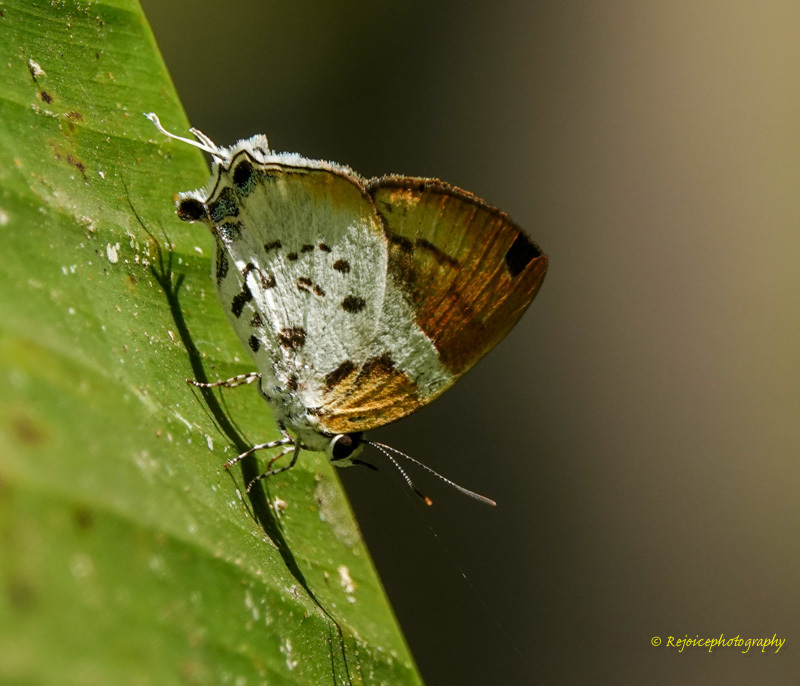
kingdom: Animalia
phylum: Arthropoda
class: Insecta
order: Lepidoptera
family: Lycaenidae
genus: Araotes
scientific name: Araotes lapithis
